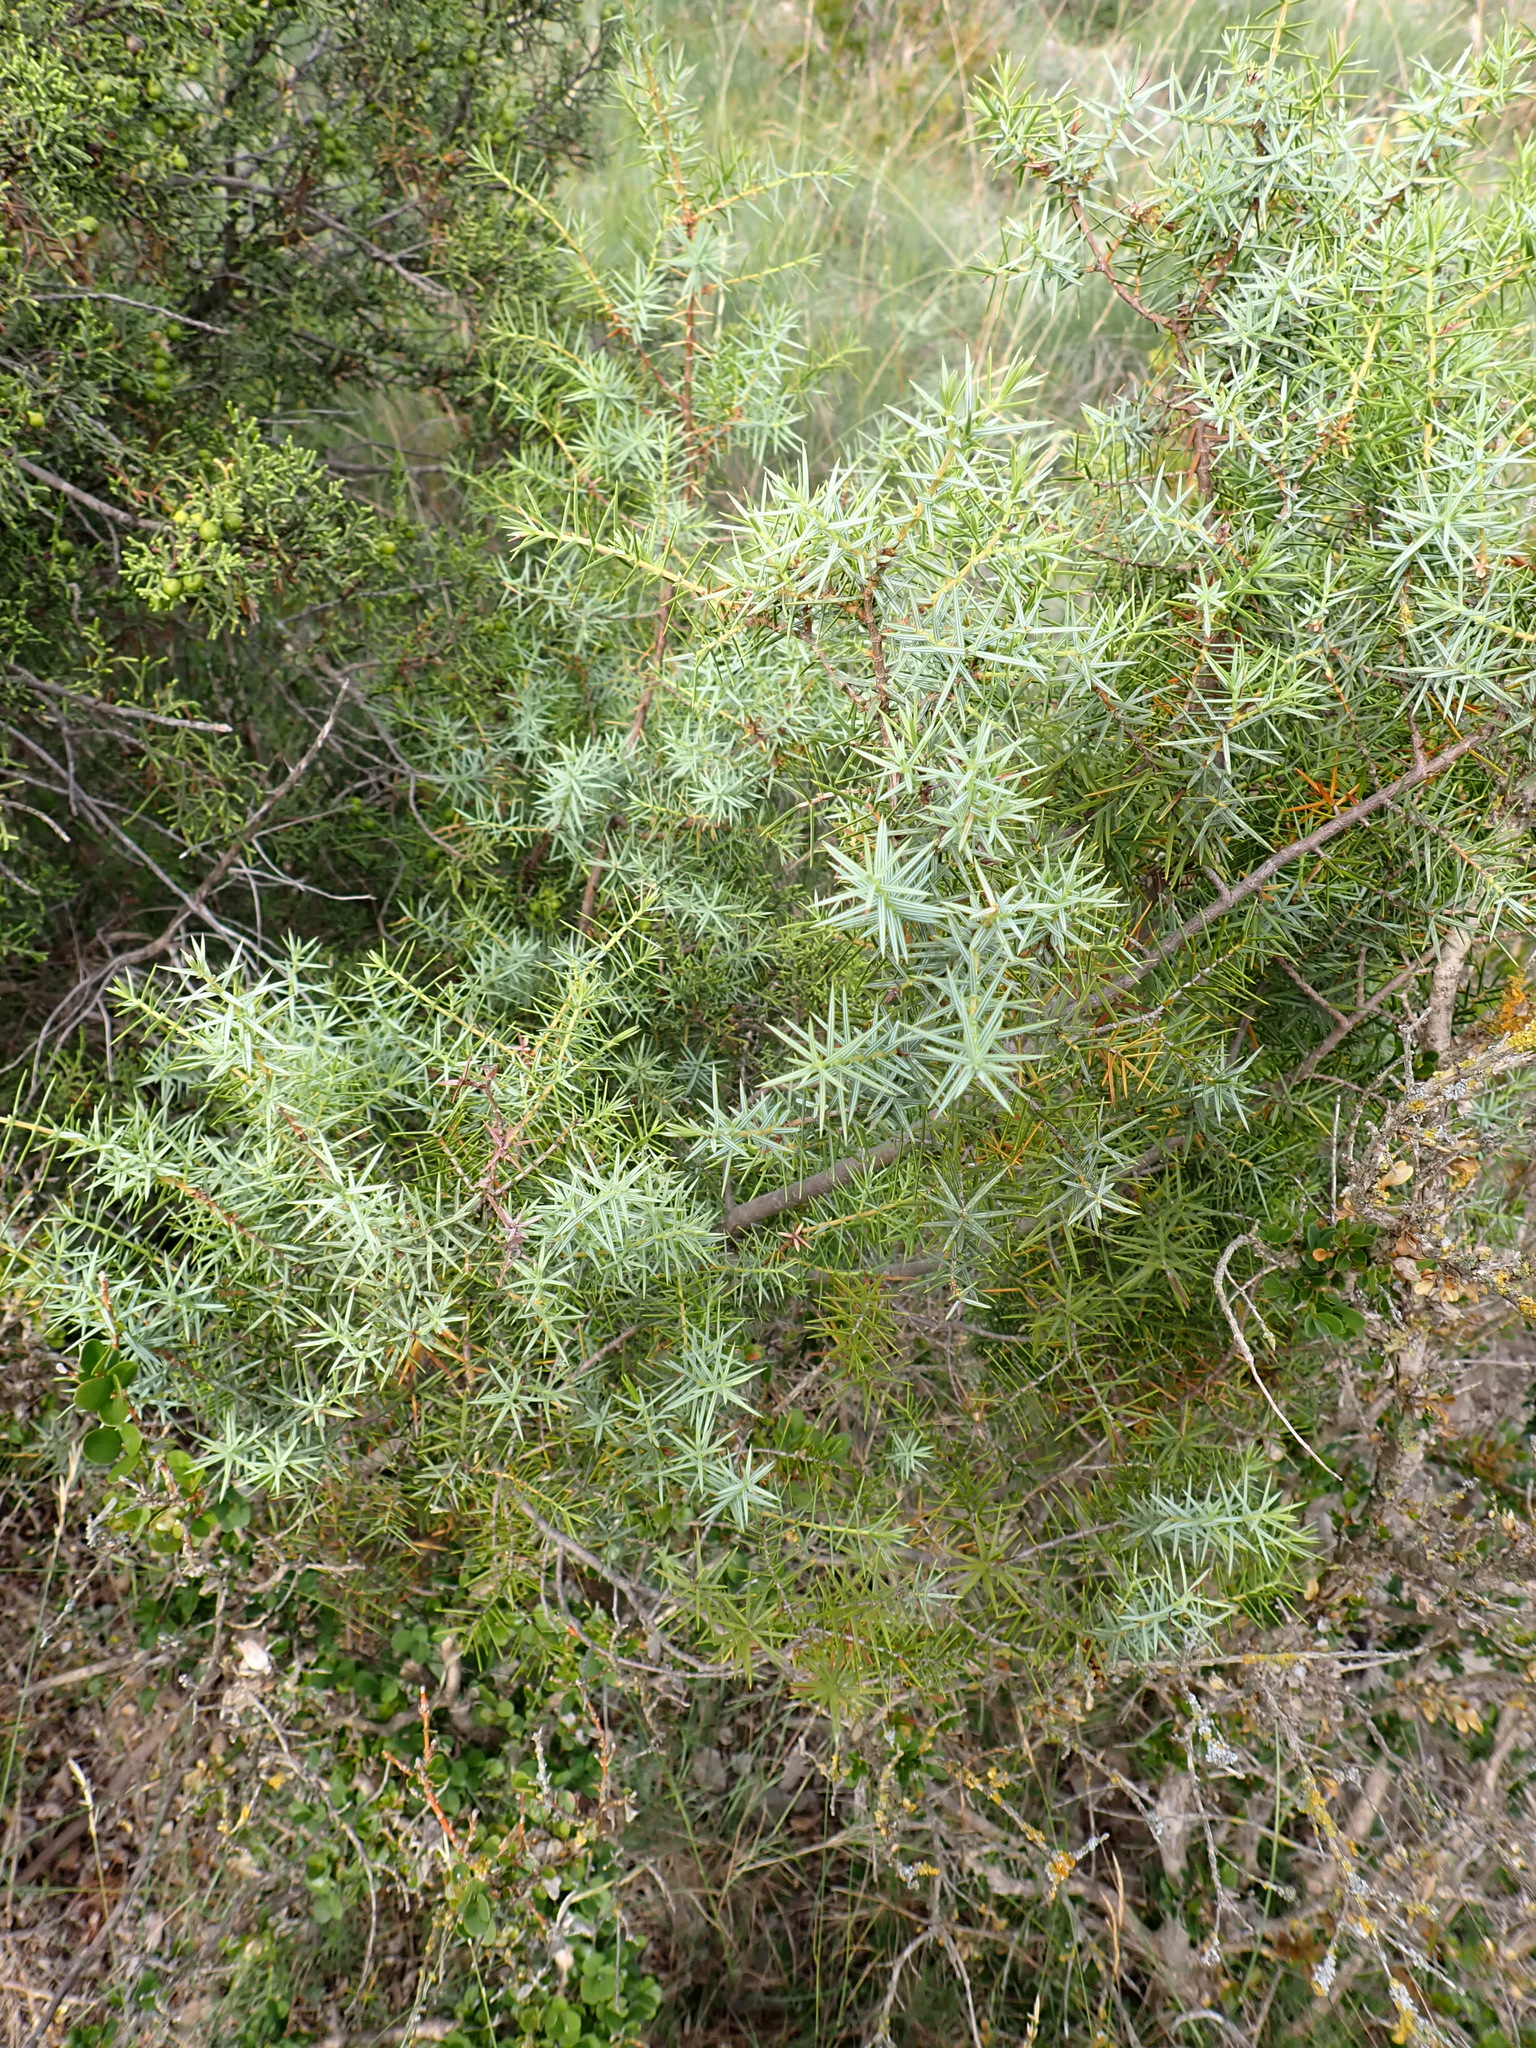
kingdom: Plantae
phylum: Tracheophyta
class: Pinopsida
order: Pinales
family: Cupressaceae
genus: Juniperus
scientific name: Juniperus oxycedrus
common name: Prickly juniper
